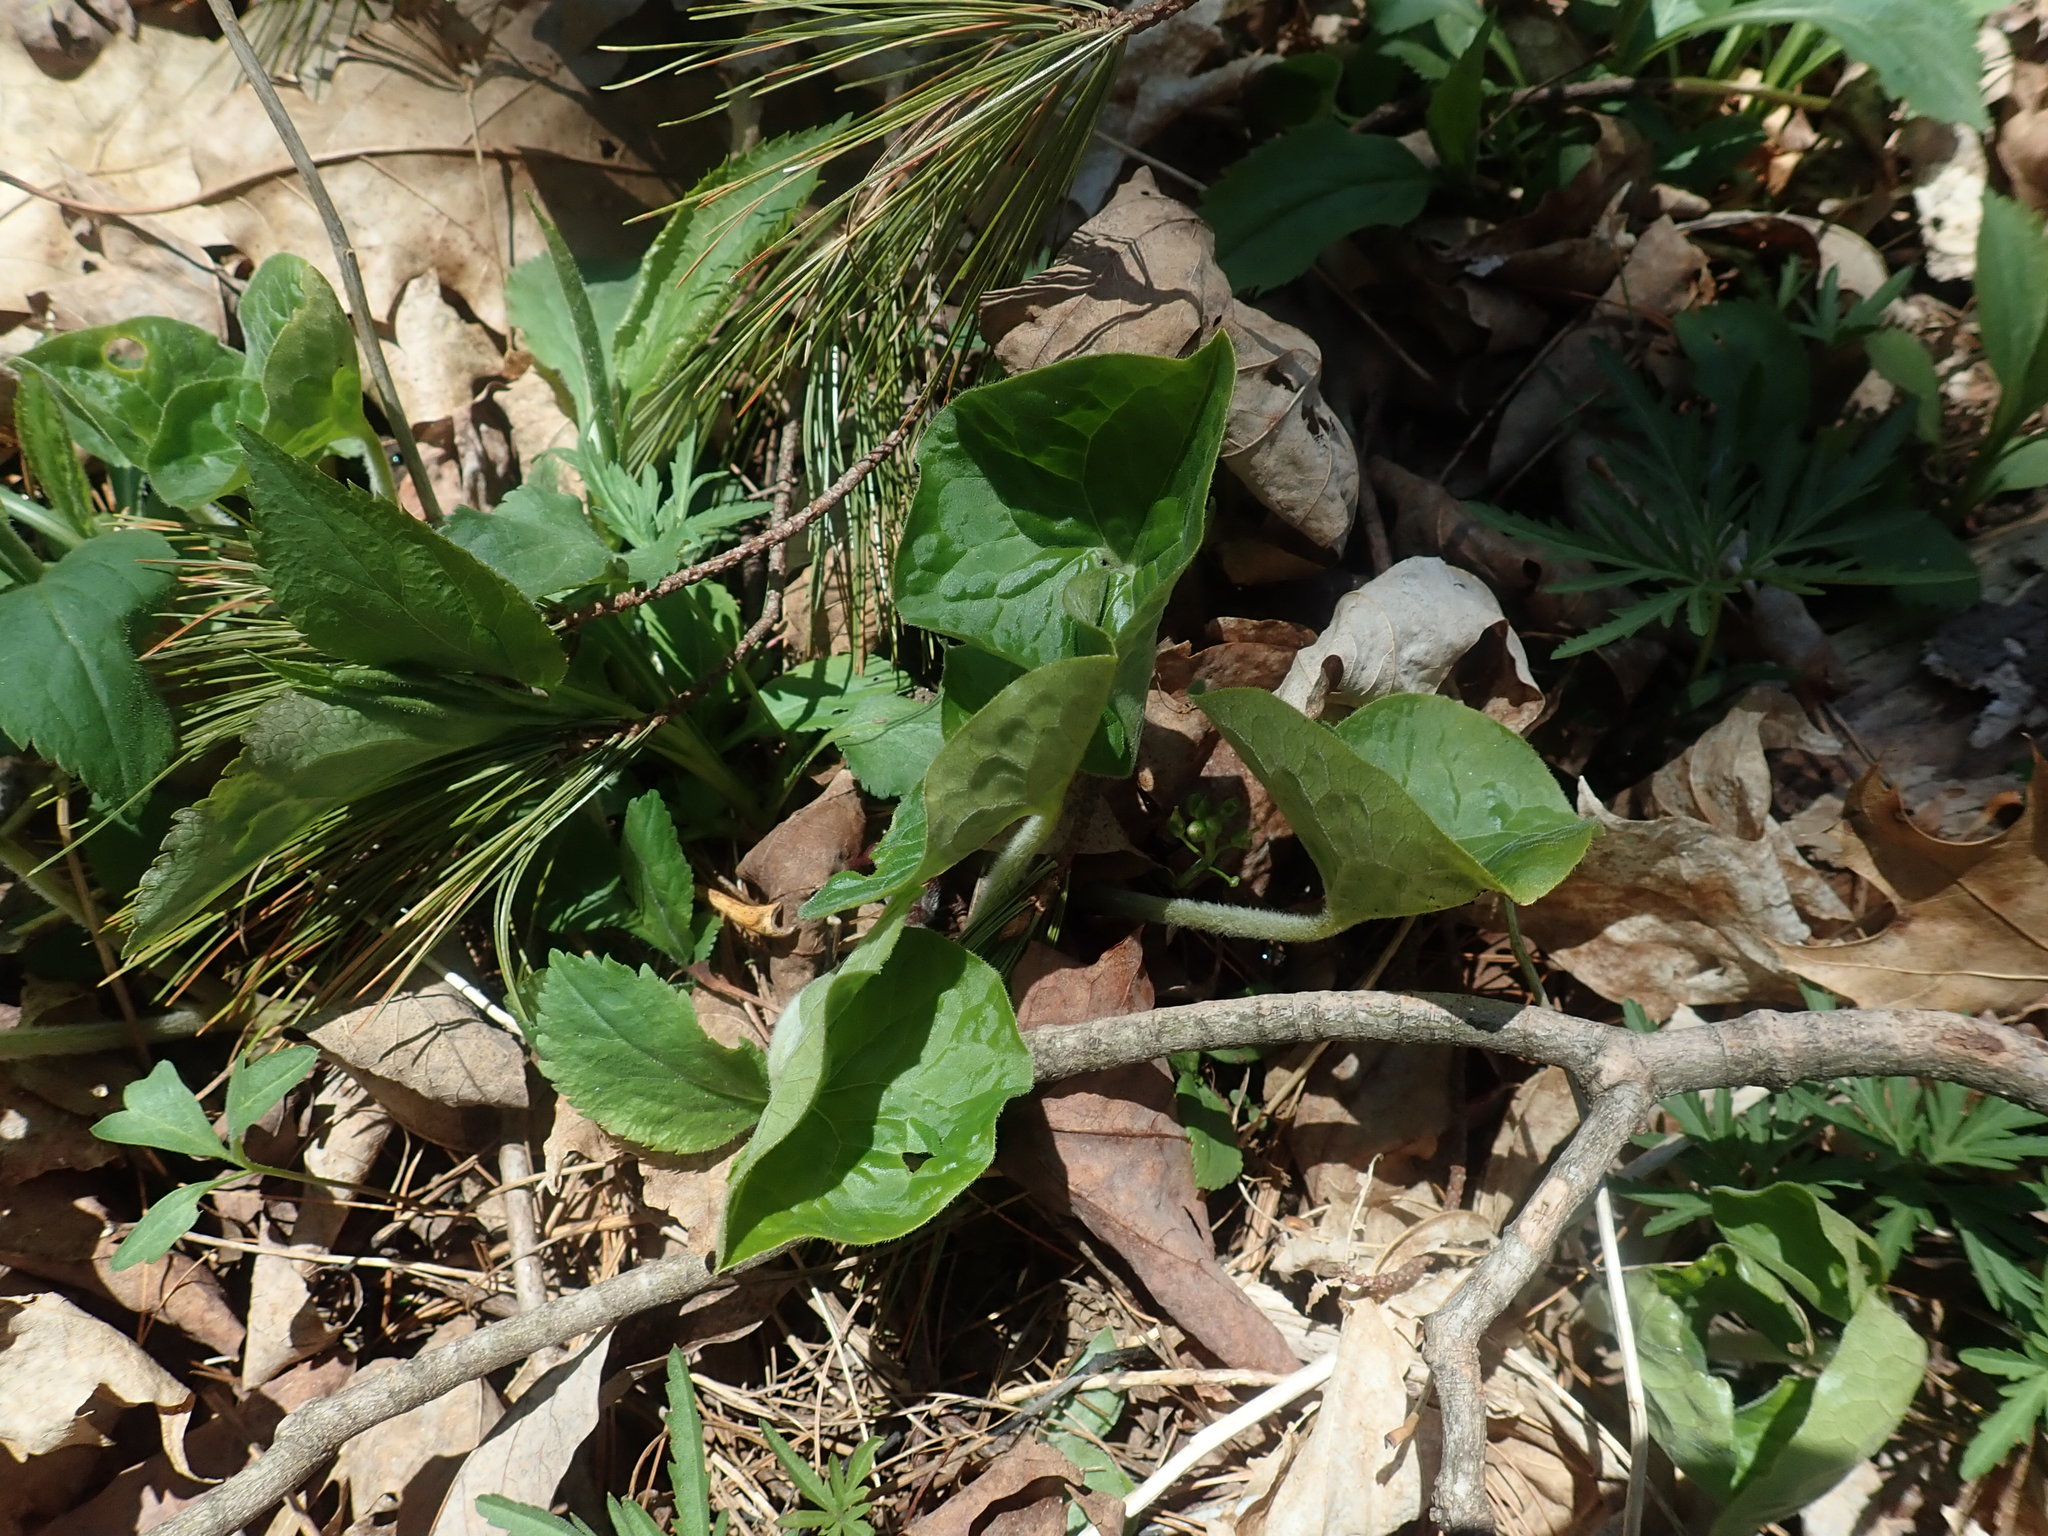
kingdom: Plantae
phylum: Tracheophyta
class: Magnoliopsida
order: Piperales
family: Aristolochiaceae
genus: Asarum
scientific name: Asarum canadense
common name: Wild ginger
